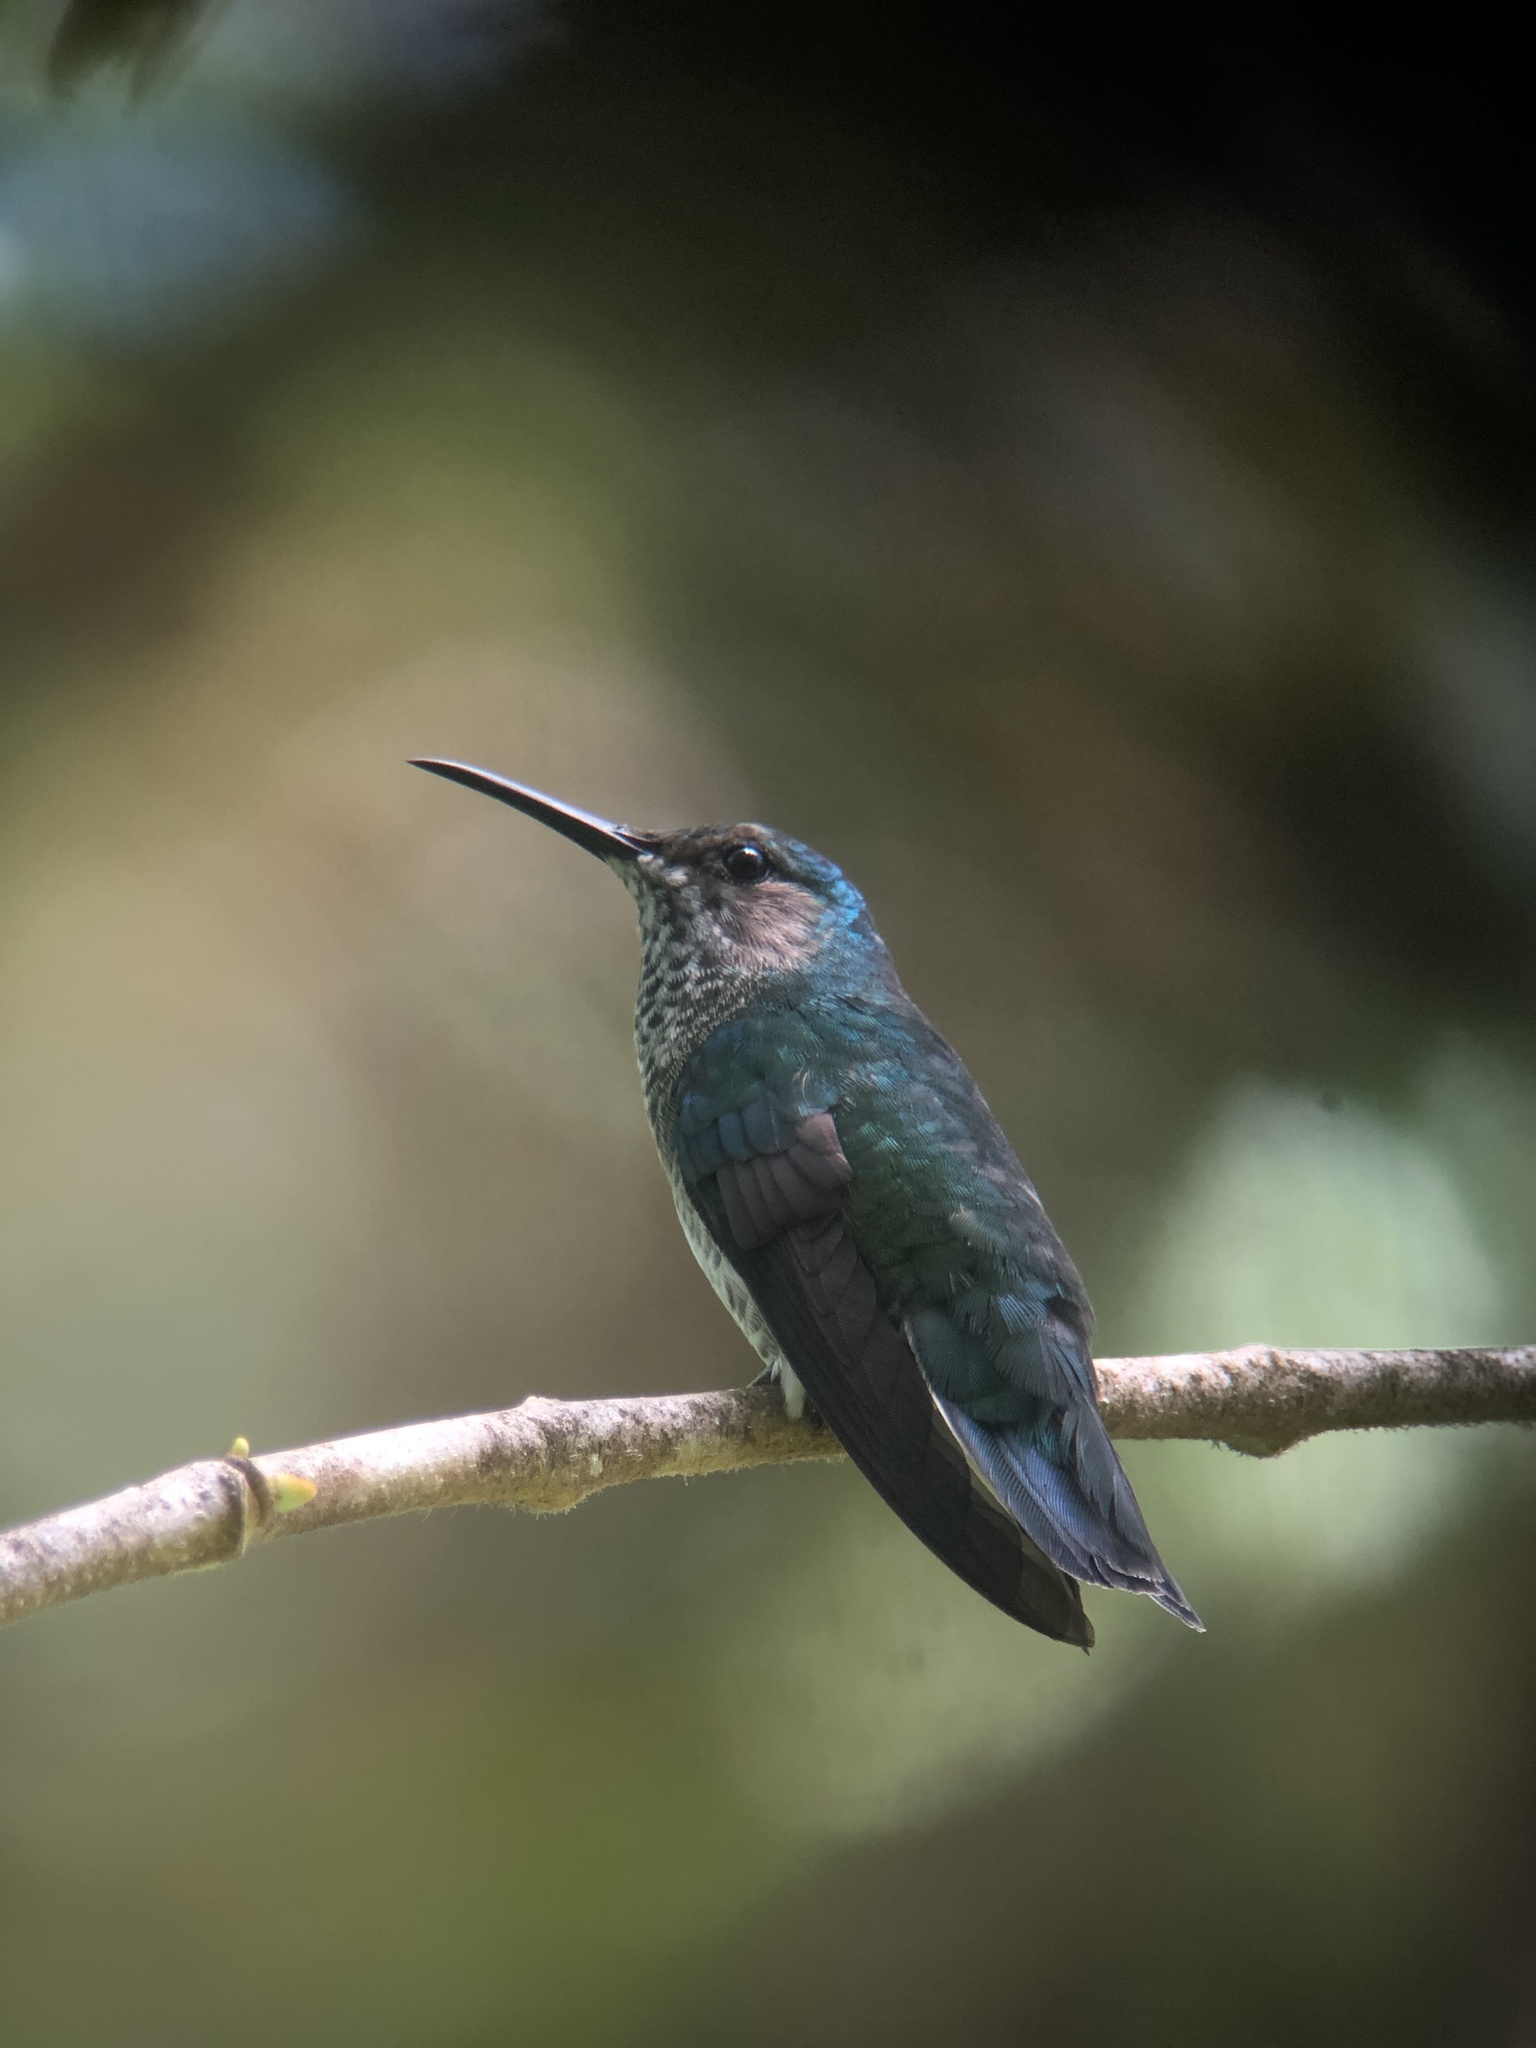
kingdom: Animalia
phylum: Chordata
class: Aves
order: Apodiformes
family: Trochilidae
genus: Florisuga
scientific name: Florisuga mellivora
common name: White-necked jacobin
